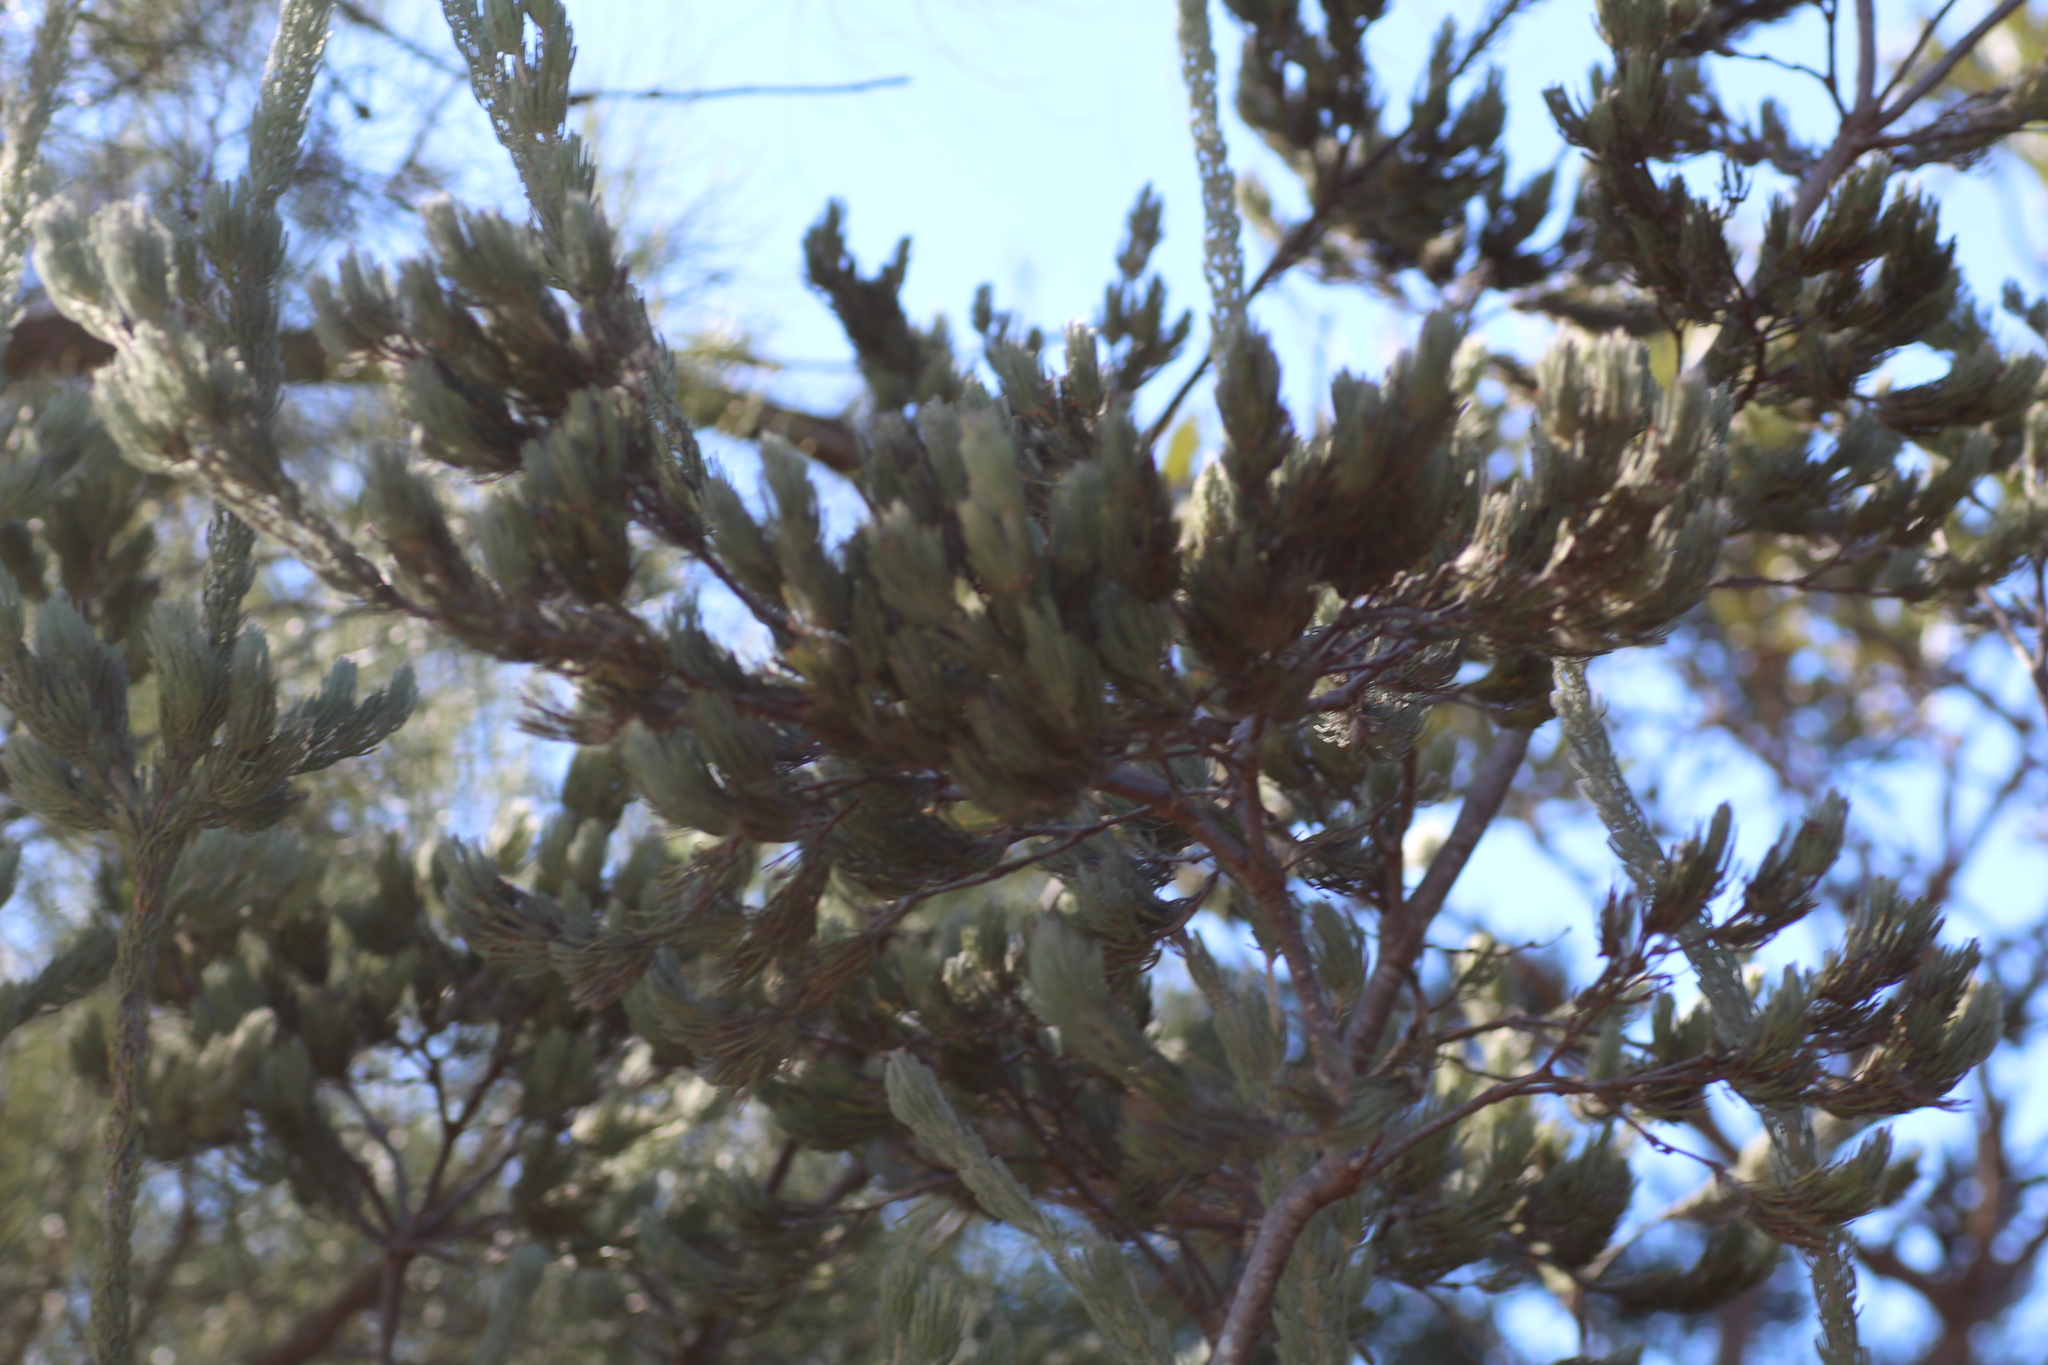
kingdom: Plantae
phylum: Tracheophyta
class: Magnoliopsida
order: Proteales
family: Proteaceae
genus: Adenanthos
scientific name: Adenanthos cygnorum
